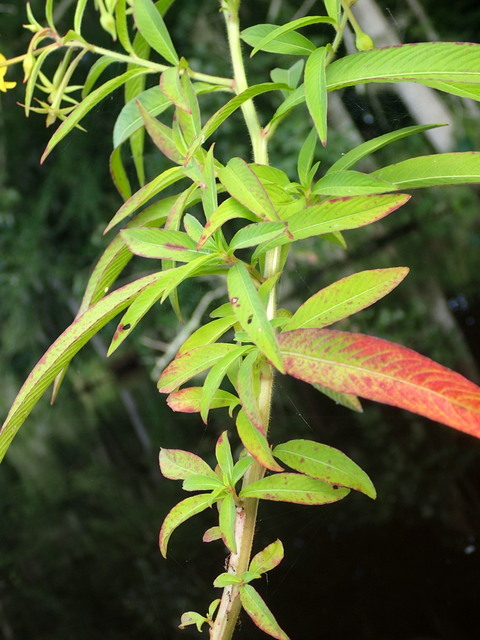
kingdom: Plantae
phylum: Tracheophyta
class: Magnoliopsida
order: Myrtales
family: Onagraceae
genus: Ludwigia
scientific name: Ludwigia leptocarpa
